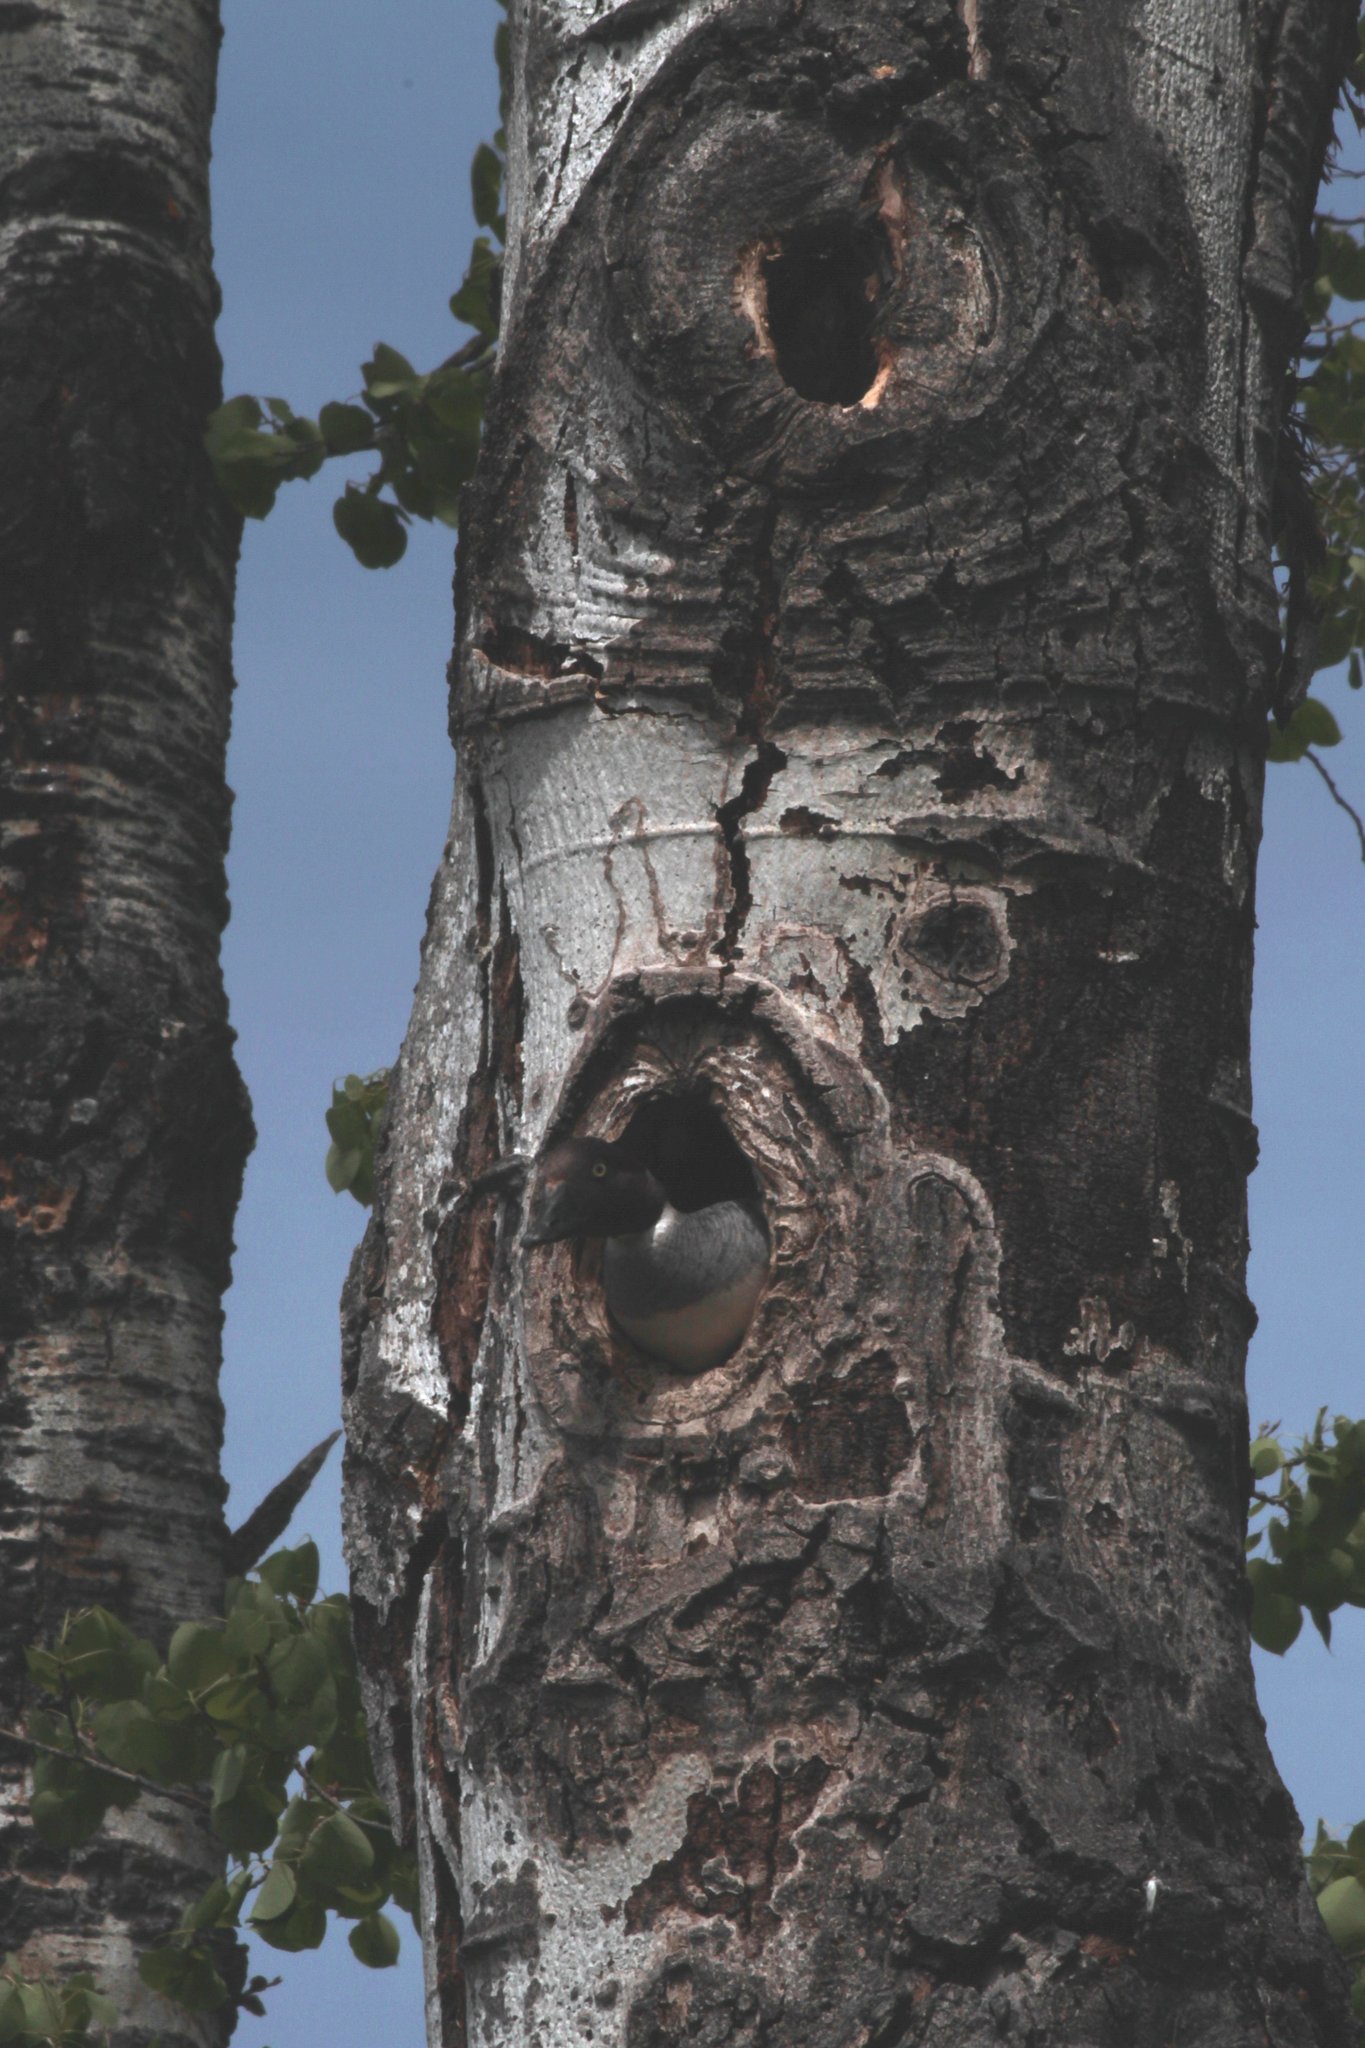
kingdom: Animalia
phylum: Chordata
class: Aves
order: Anseriformes
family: Anatidae
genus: Bucephala
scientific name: Bucephala clangula
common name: Common goldeneye
